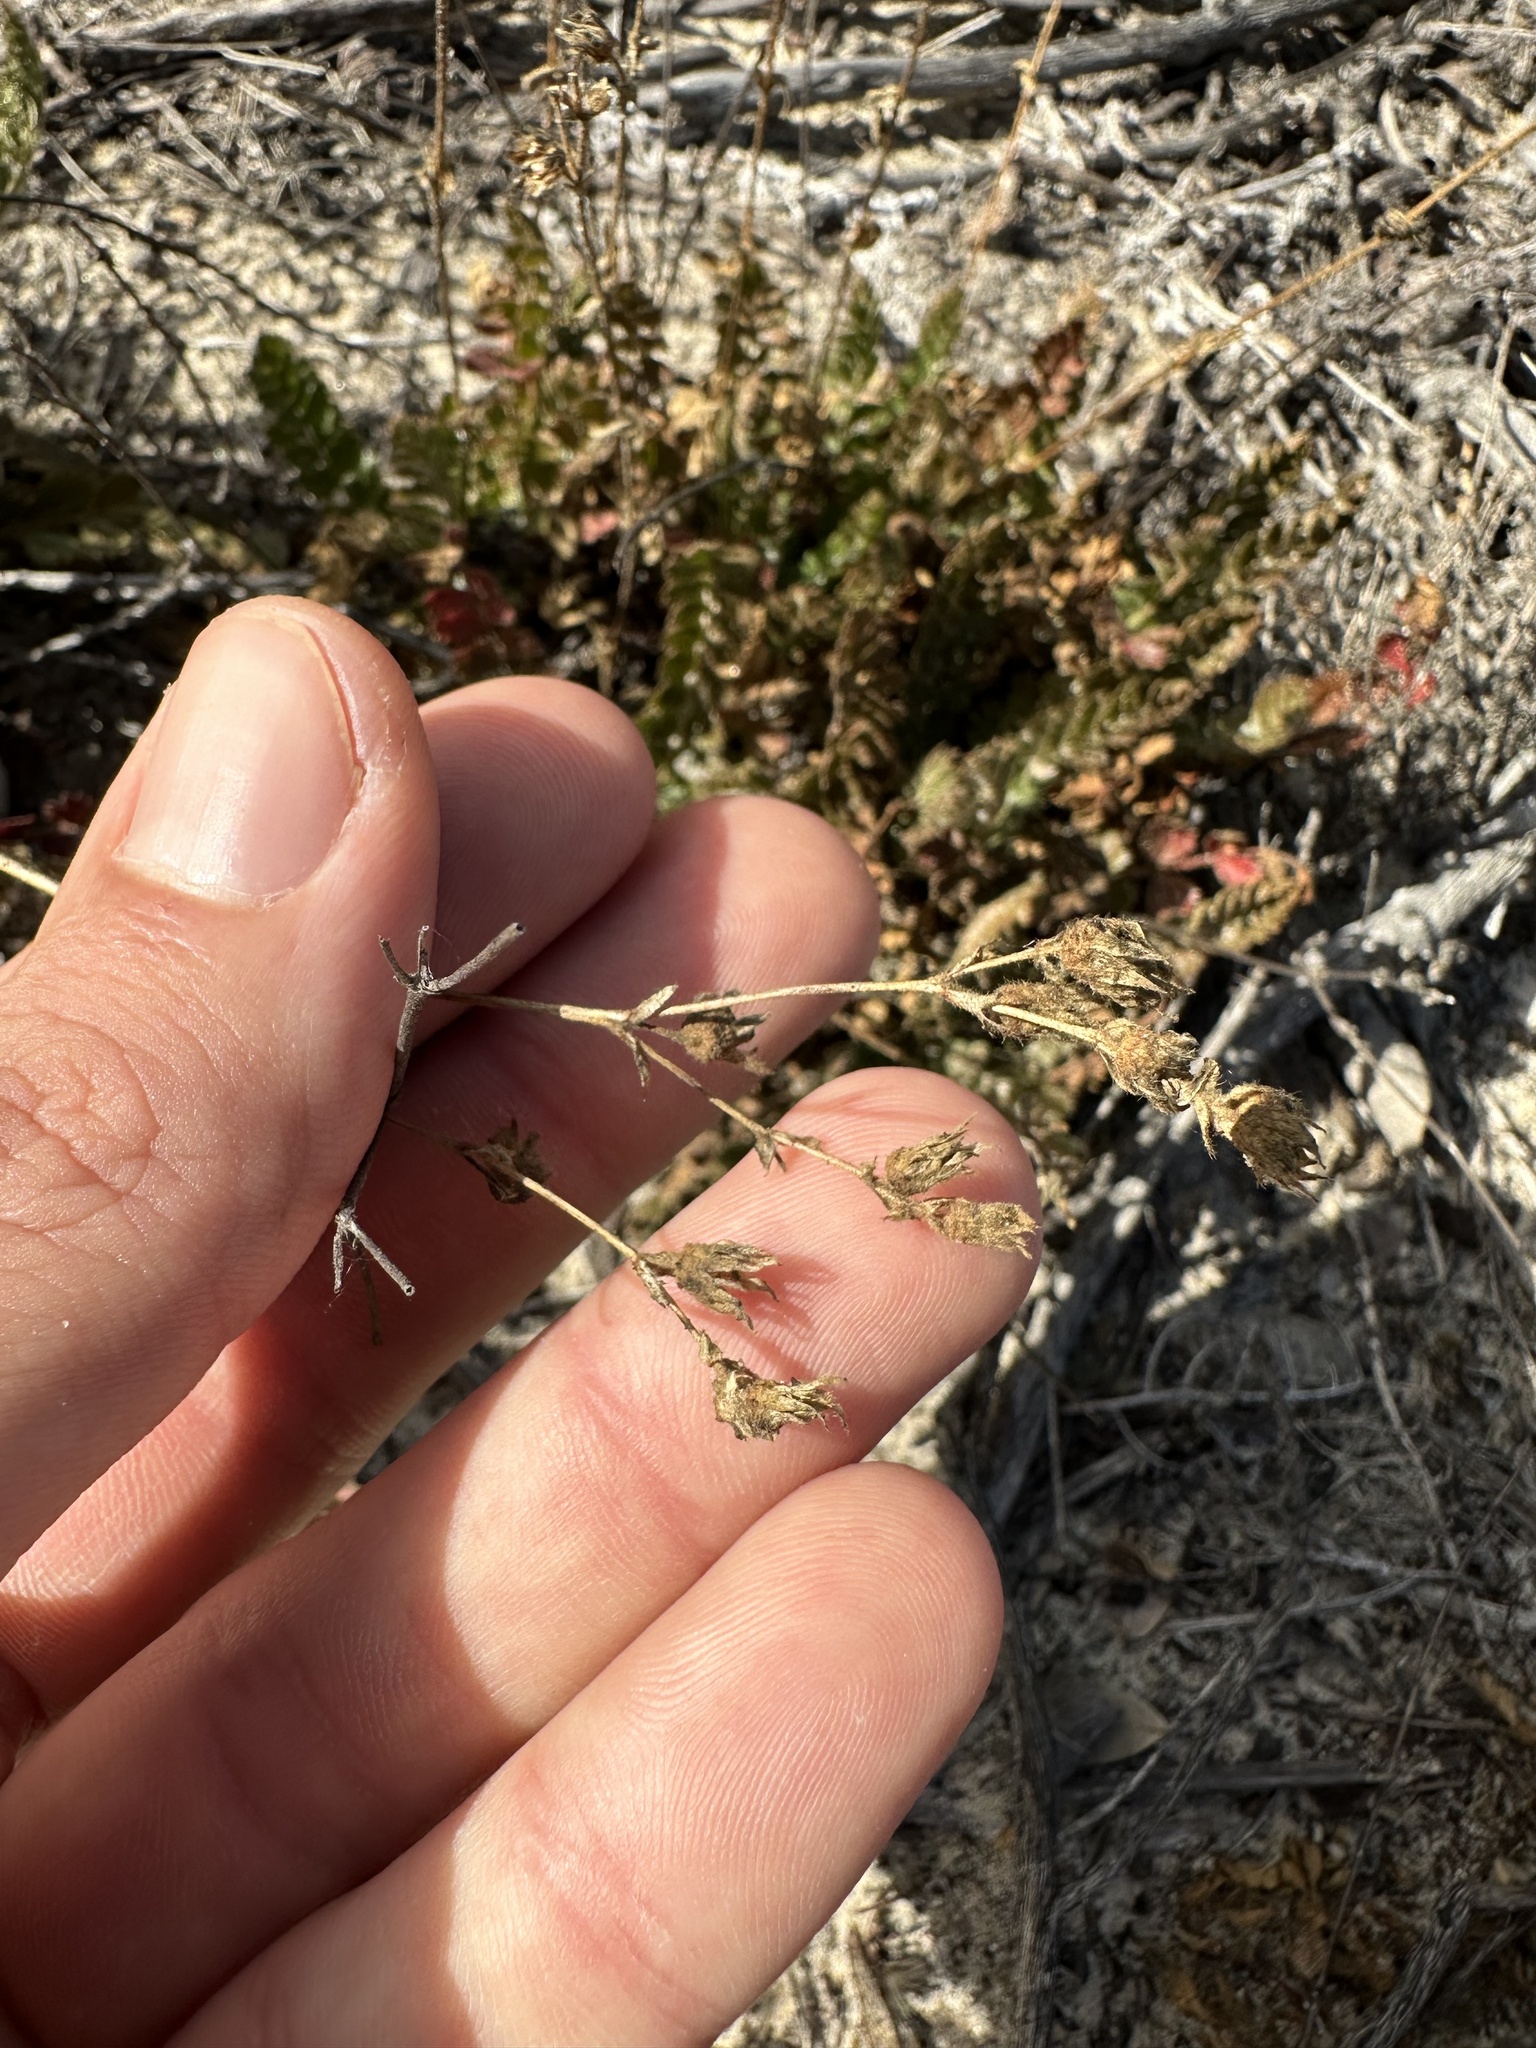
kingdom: Plantae
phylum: Tracheophyta
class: Magnoliopsida
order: Rosales
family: Rosaceae
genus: Potentilla
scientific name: Potentilla
